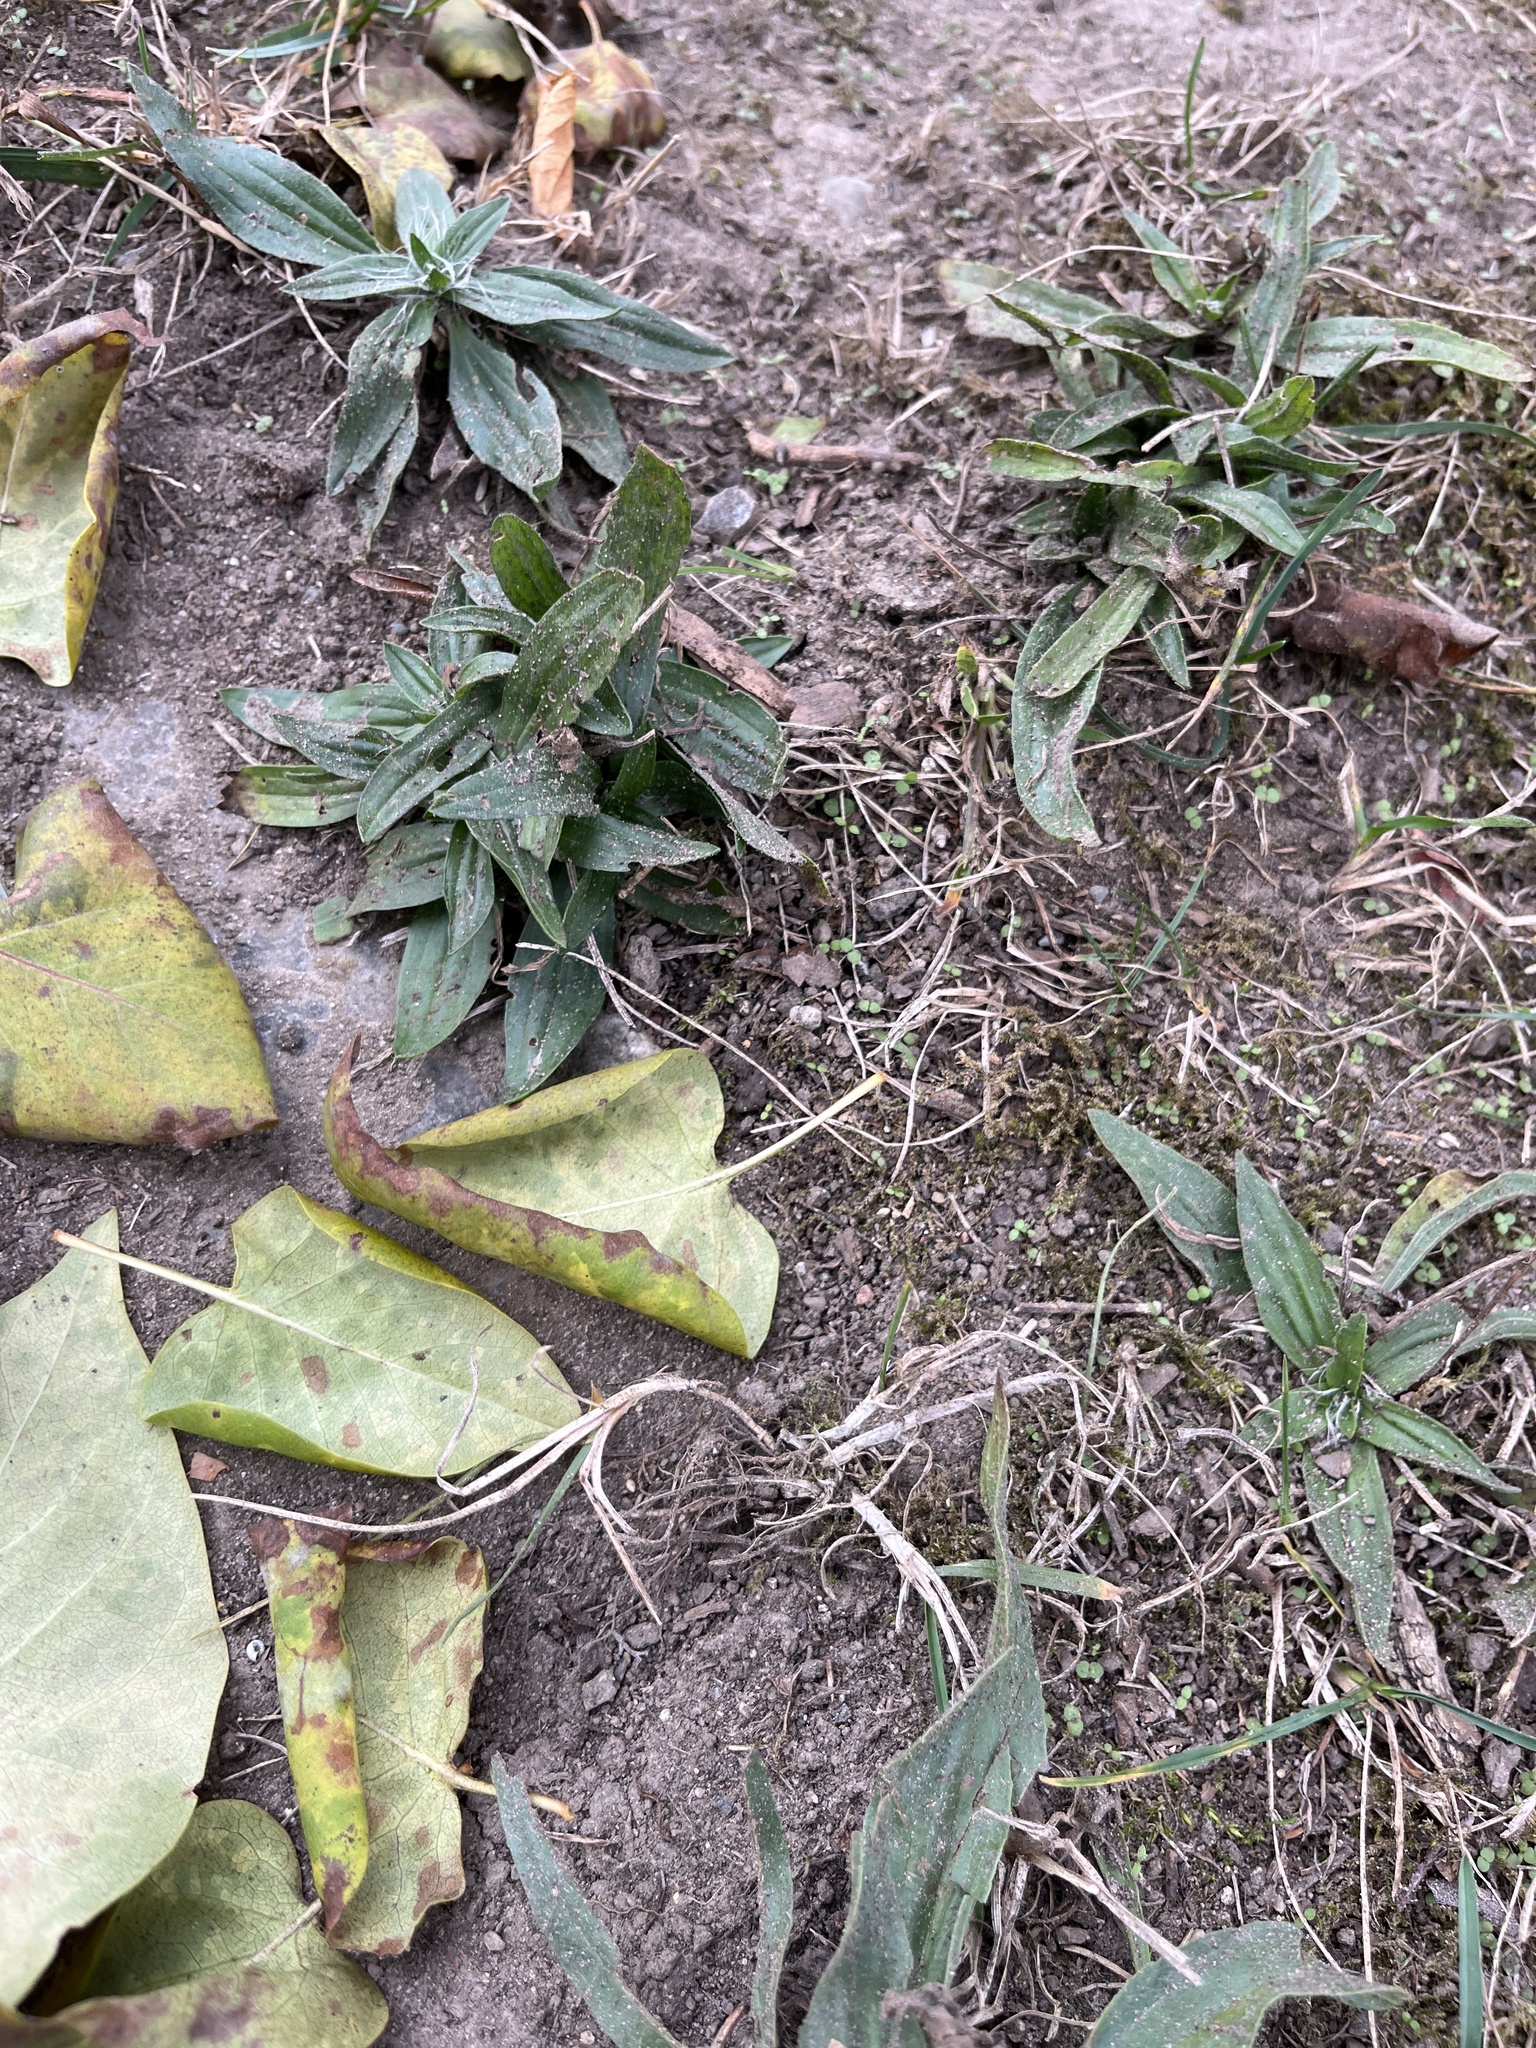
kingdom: Plantae
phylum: Tracheophyta
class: Magnoliopsida
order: Lamiales
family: Plantaginaceae
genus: Plantago
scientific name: Plantago lanceolata
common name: Ribwort plantain
